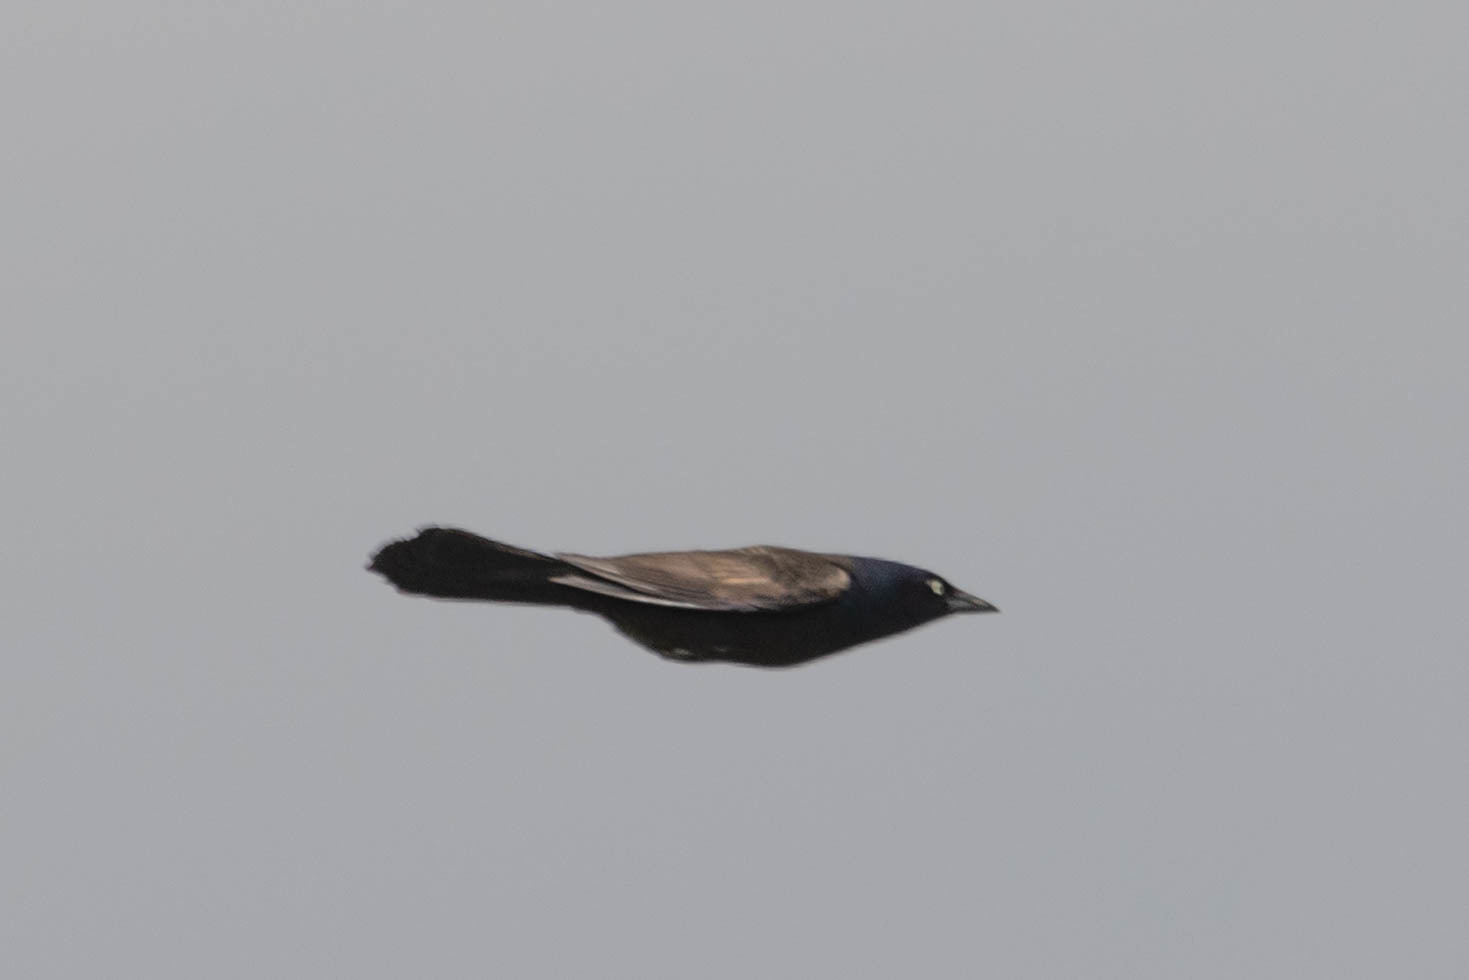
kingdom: Animalia
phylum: Chordata
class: Aves
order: Passeriformes
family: Icteridae
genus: Quiscalus
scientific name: Quiscalus quiscula
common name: Common grackle
